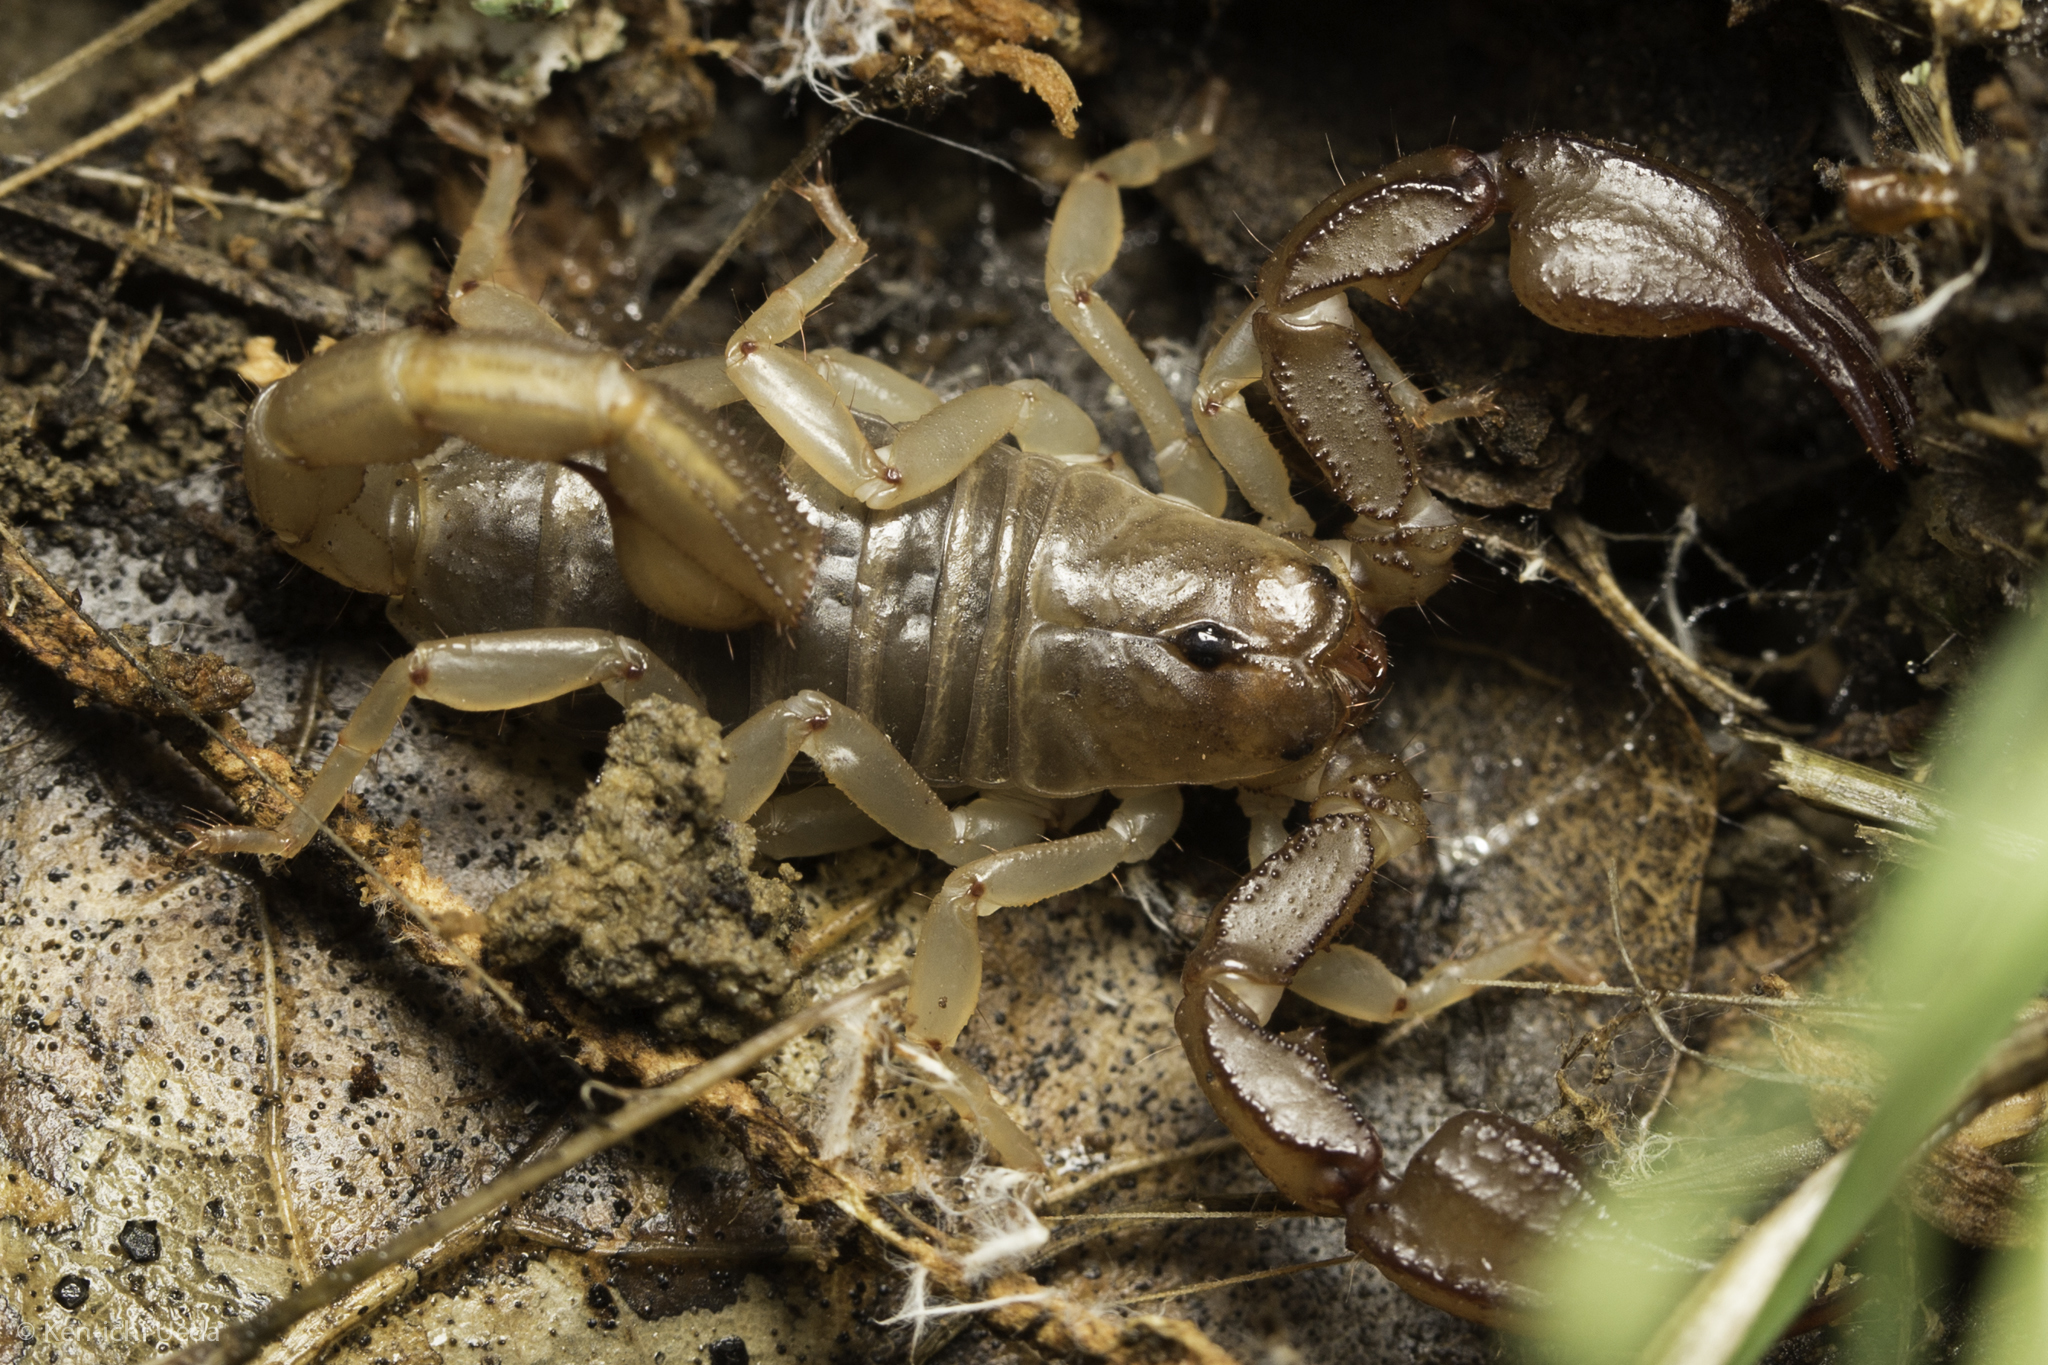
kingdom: Animalia
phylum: Arthropoda
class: Arachnida
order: Scorpiones
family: Chactidae
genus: Uroctonus
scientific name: Uroctonus mordax
